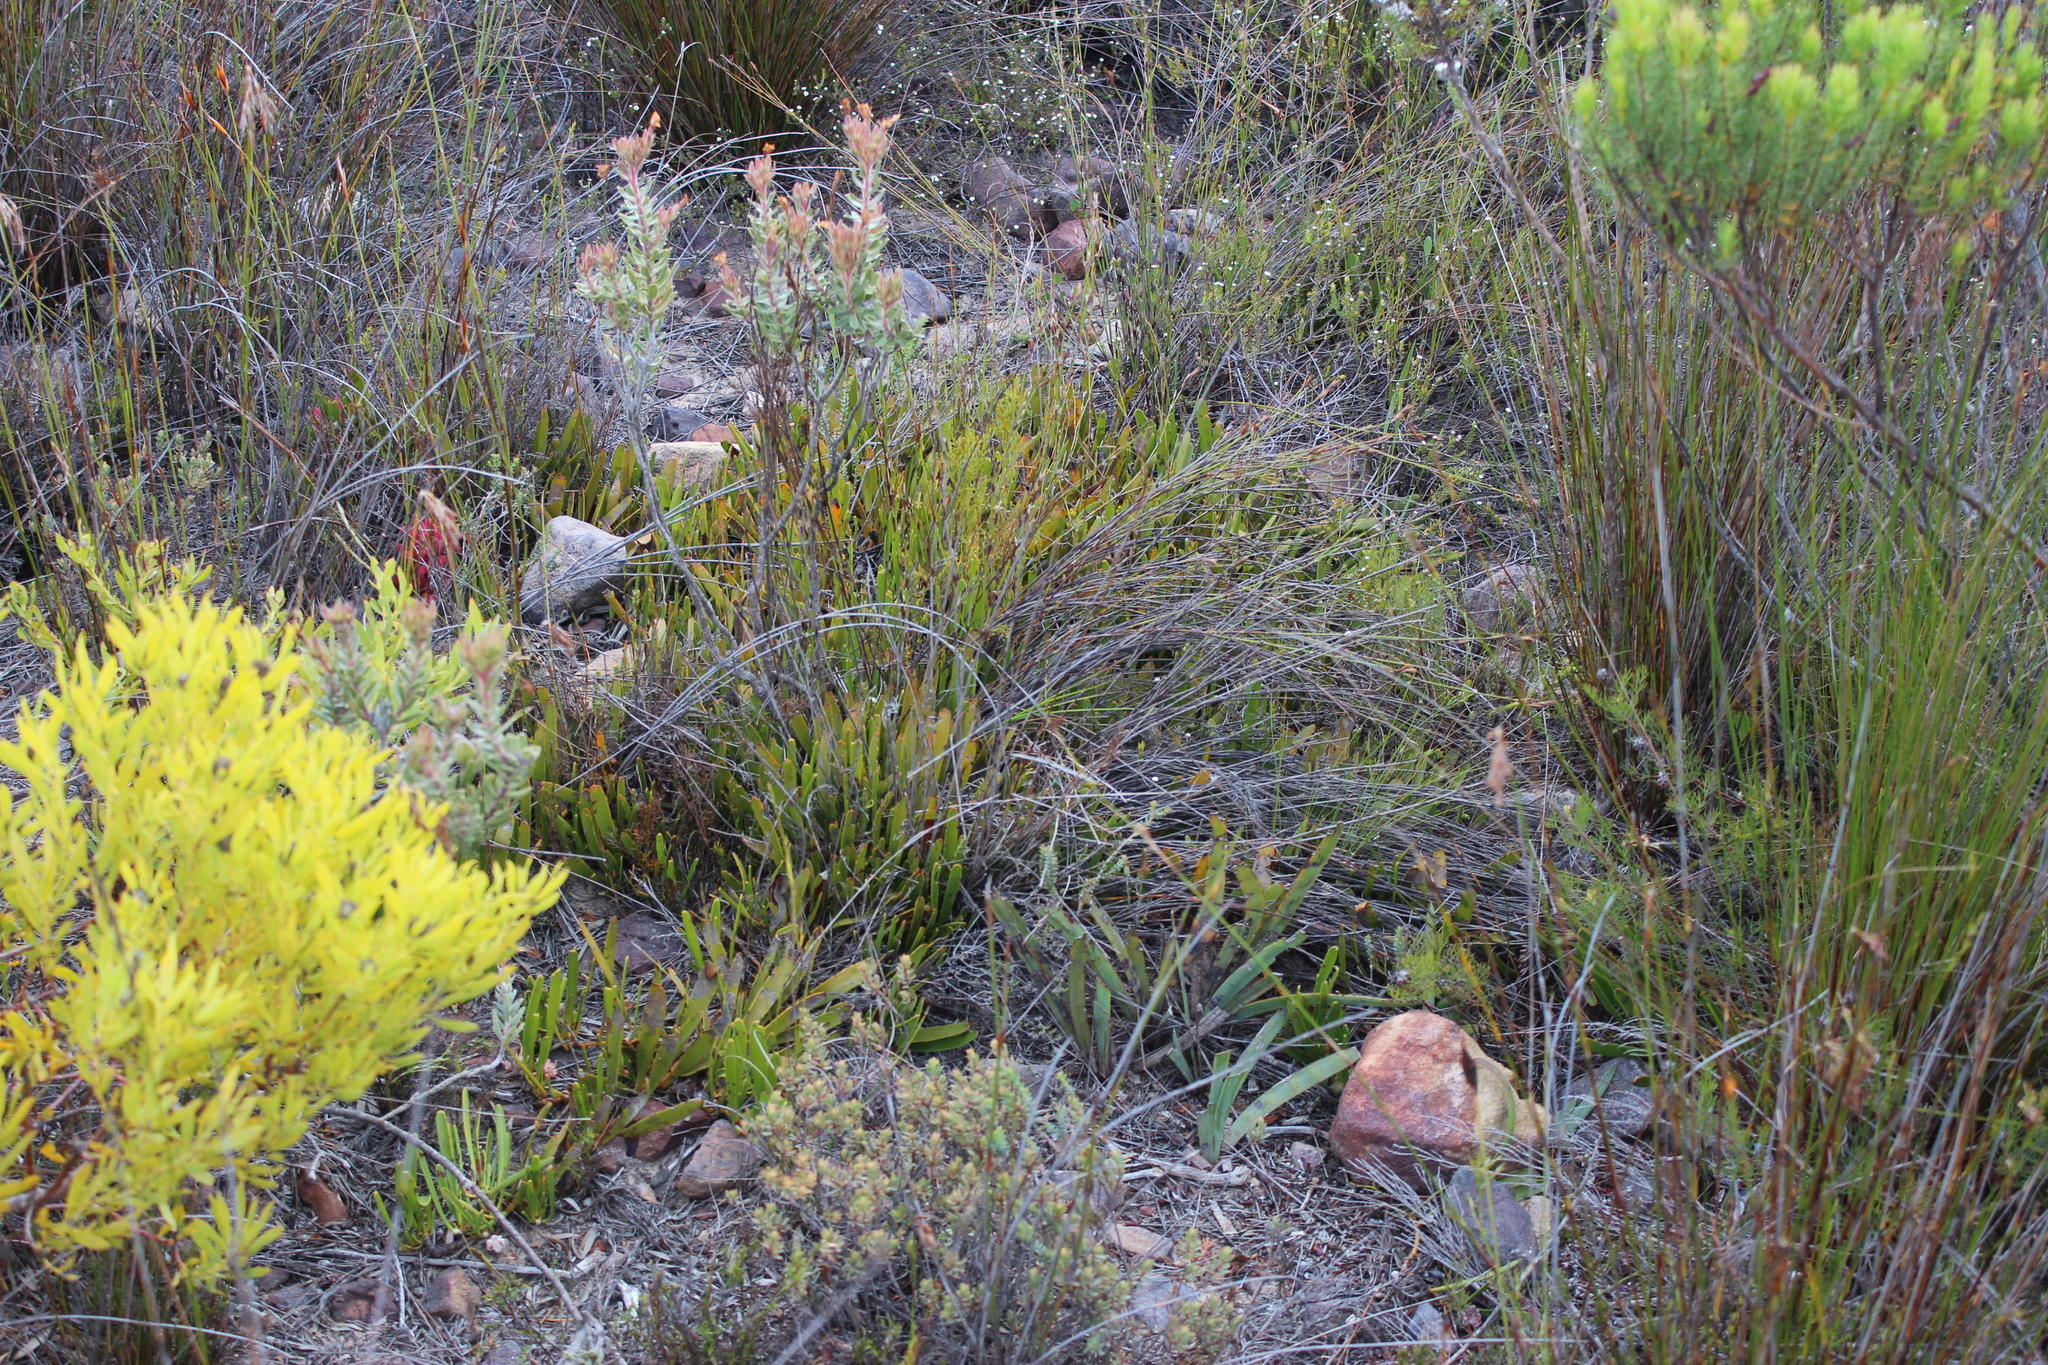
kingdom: Plantae
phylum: Tracheophyta
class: Magnoliopsida
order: Proteales
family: Proteaceae
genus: Leucospermum
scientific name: Leucospermum harpagonatum
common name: Mcgregor pincushion
